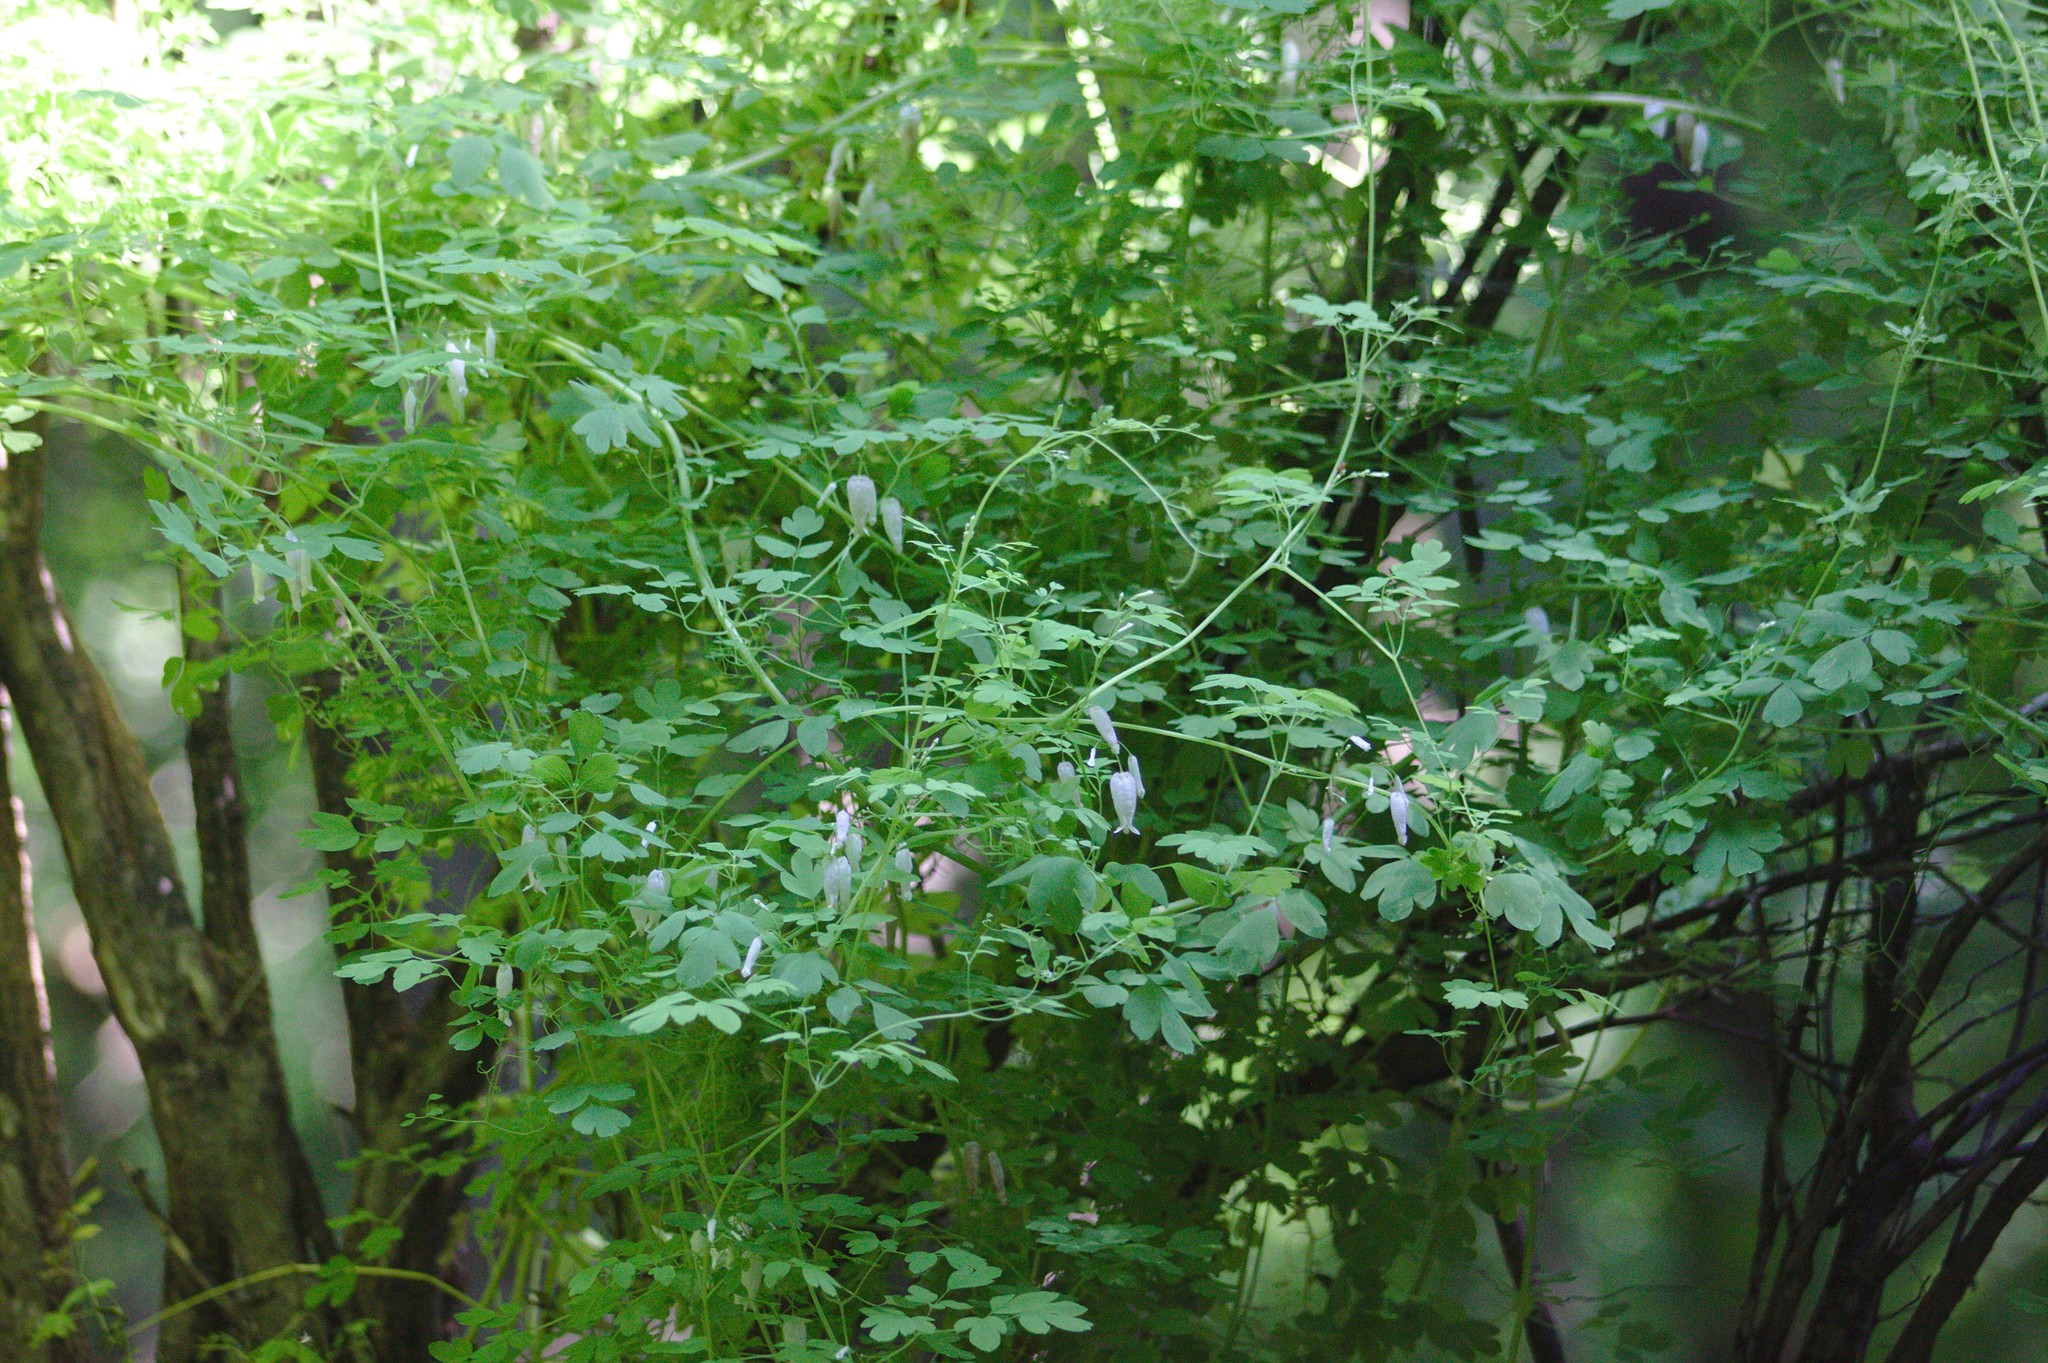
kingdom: Plantae
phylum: Tracheophyta
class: Magnoliopsida
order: Ranunculales
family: Papaveraceae
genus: Adlumia
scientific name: Adlumia fungosa
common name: Mountain-fringe
